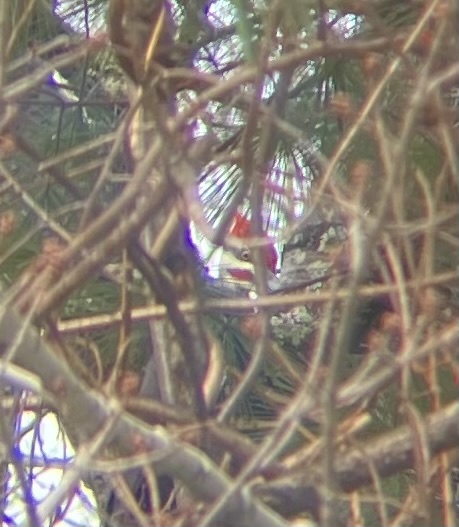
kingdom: Animalia
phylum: Chordata
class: Aves
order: Piciformes
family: Picidae
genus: Dryocopus
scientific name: Dryocopus pileatus
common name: Pileated woodpecker
